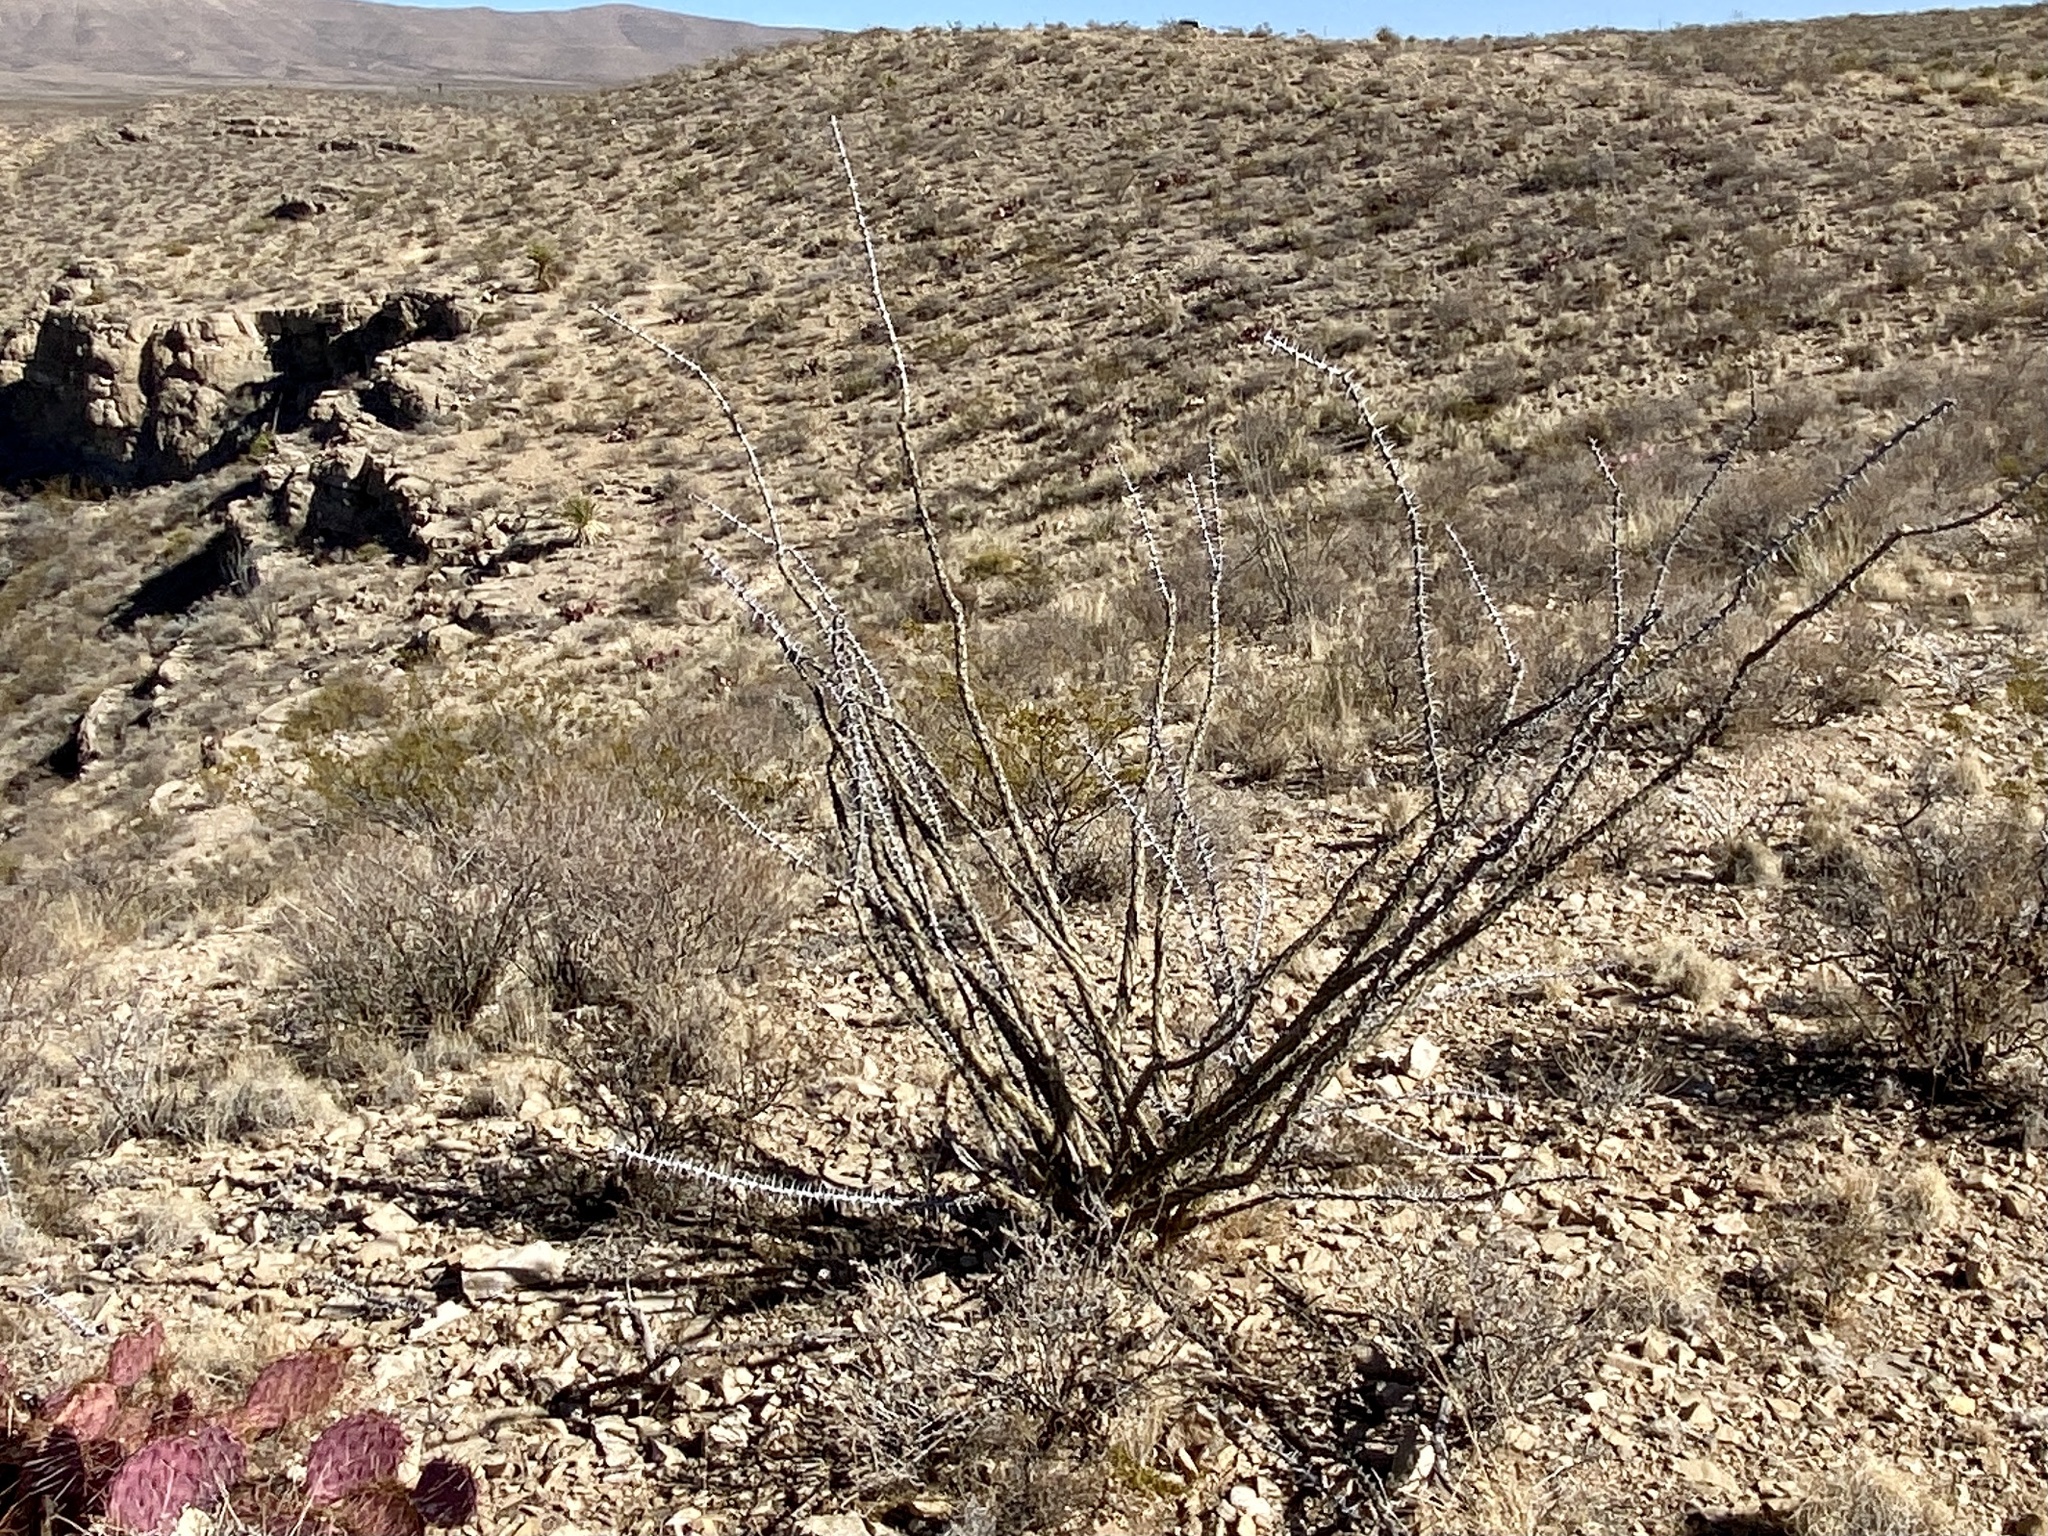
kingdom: Plantae
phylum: Tracheophyta
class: Magnoliopsida
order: Ericales
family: Fouquieriaceae
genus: Fouquieria
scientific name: Fouquieria splendens
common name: Vine-cactus
